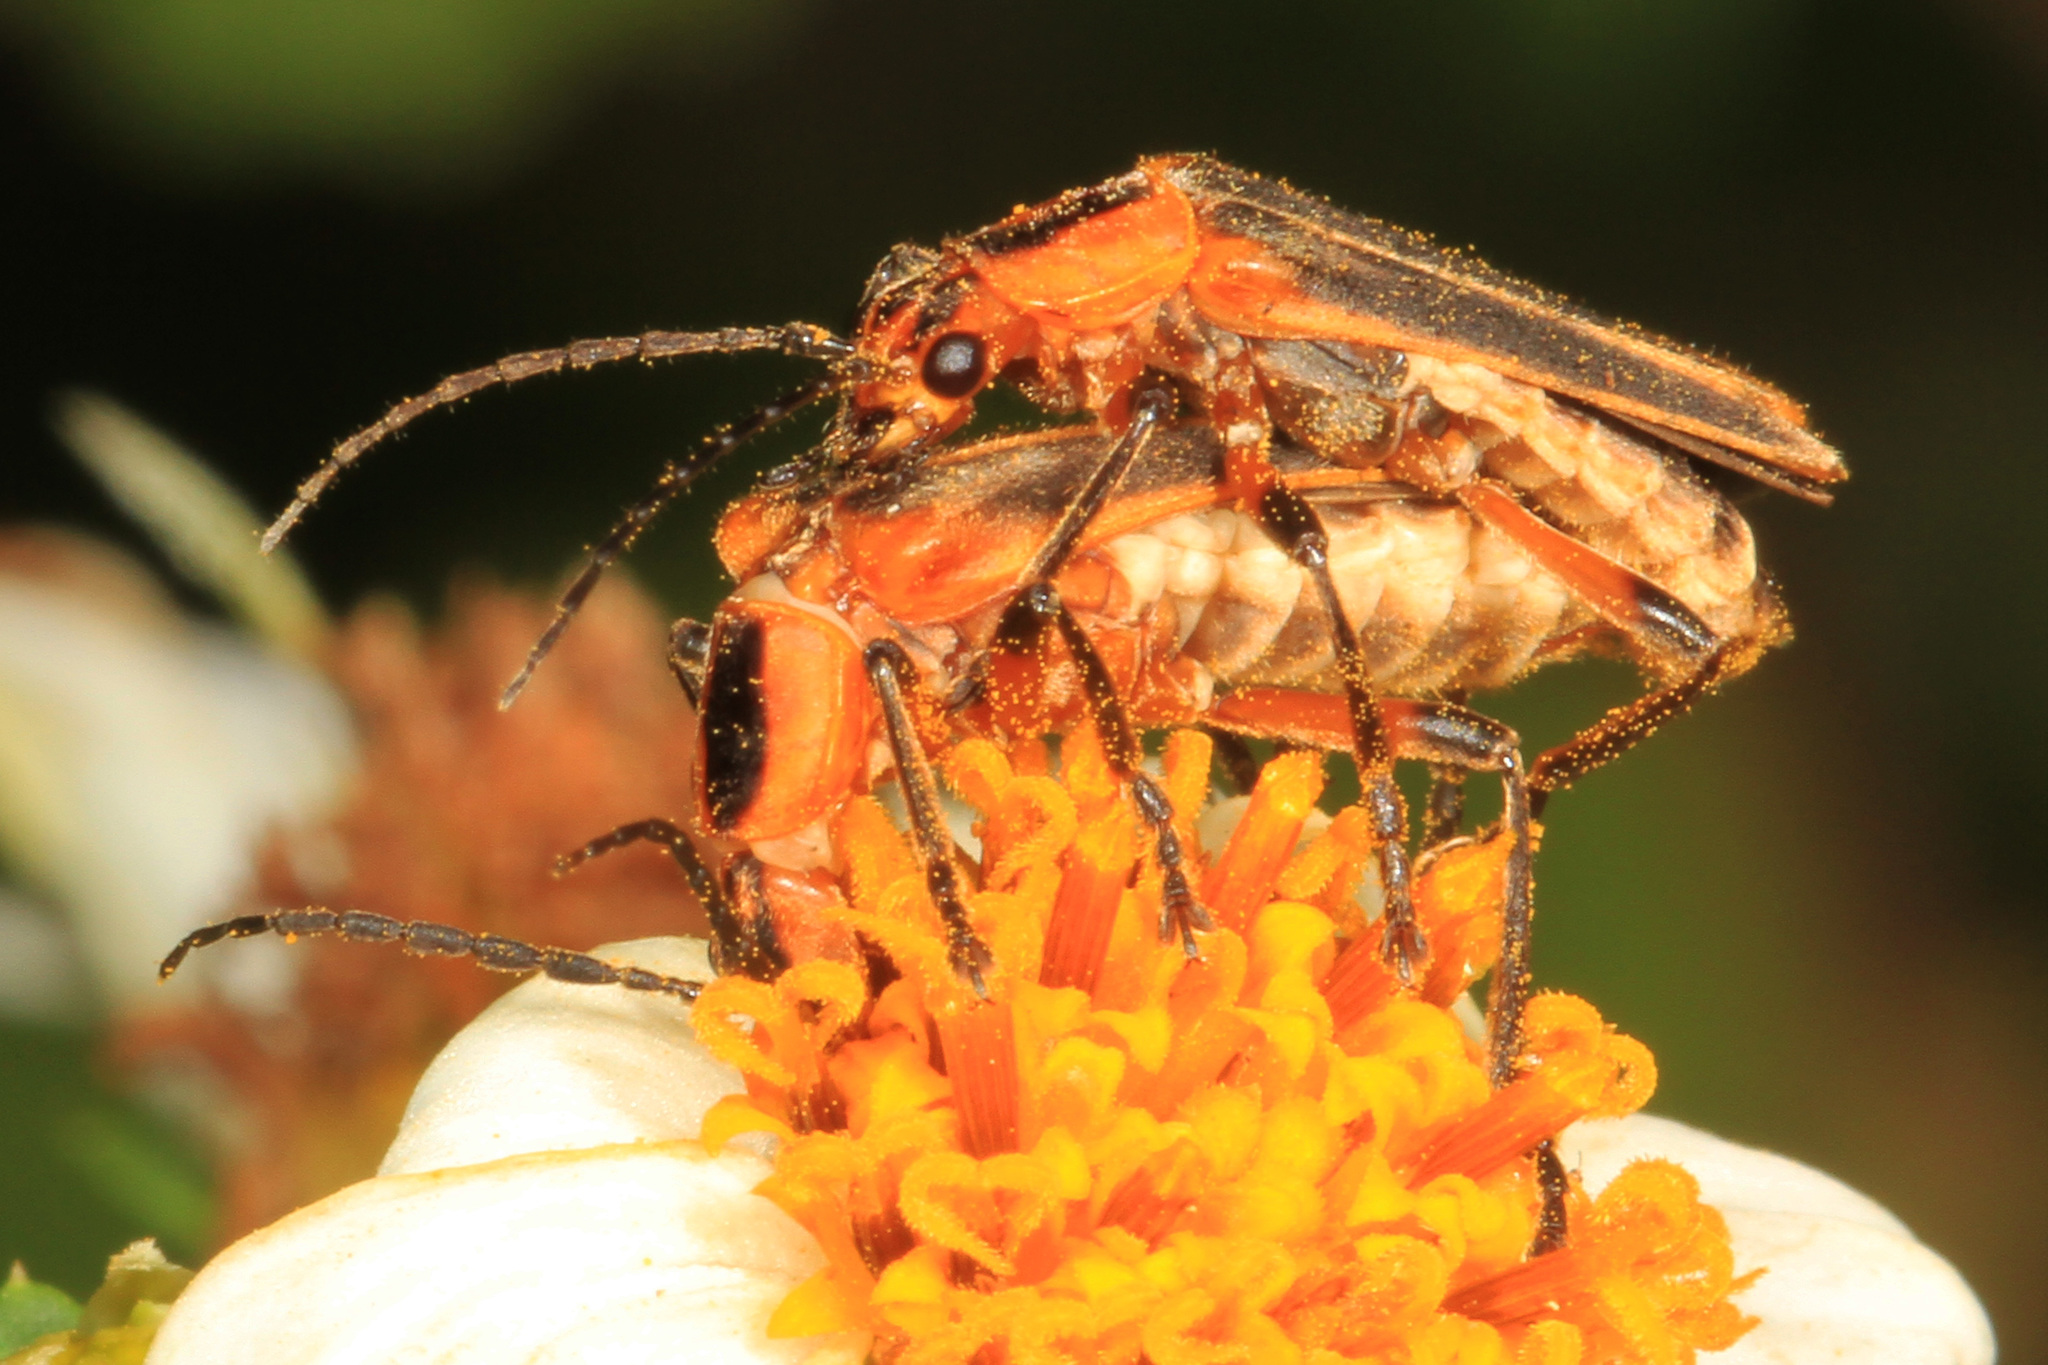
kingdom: Animalia
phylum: Arthropoda
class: Insecta
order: Coleoptera
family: Cantharidae
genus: Chauliognathus
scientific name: Chauliognathus marginatus
